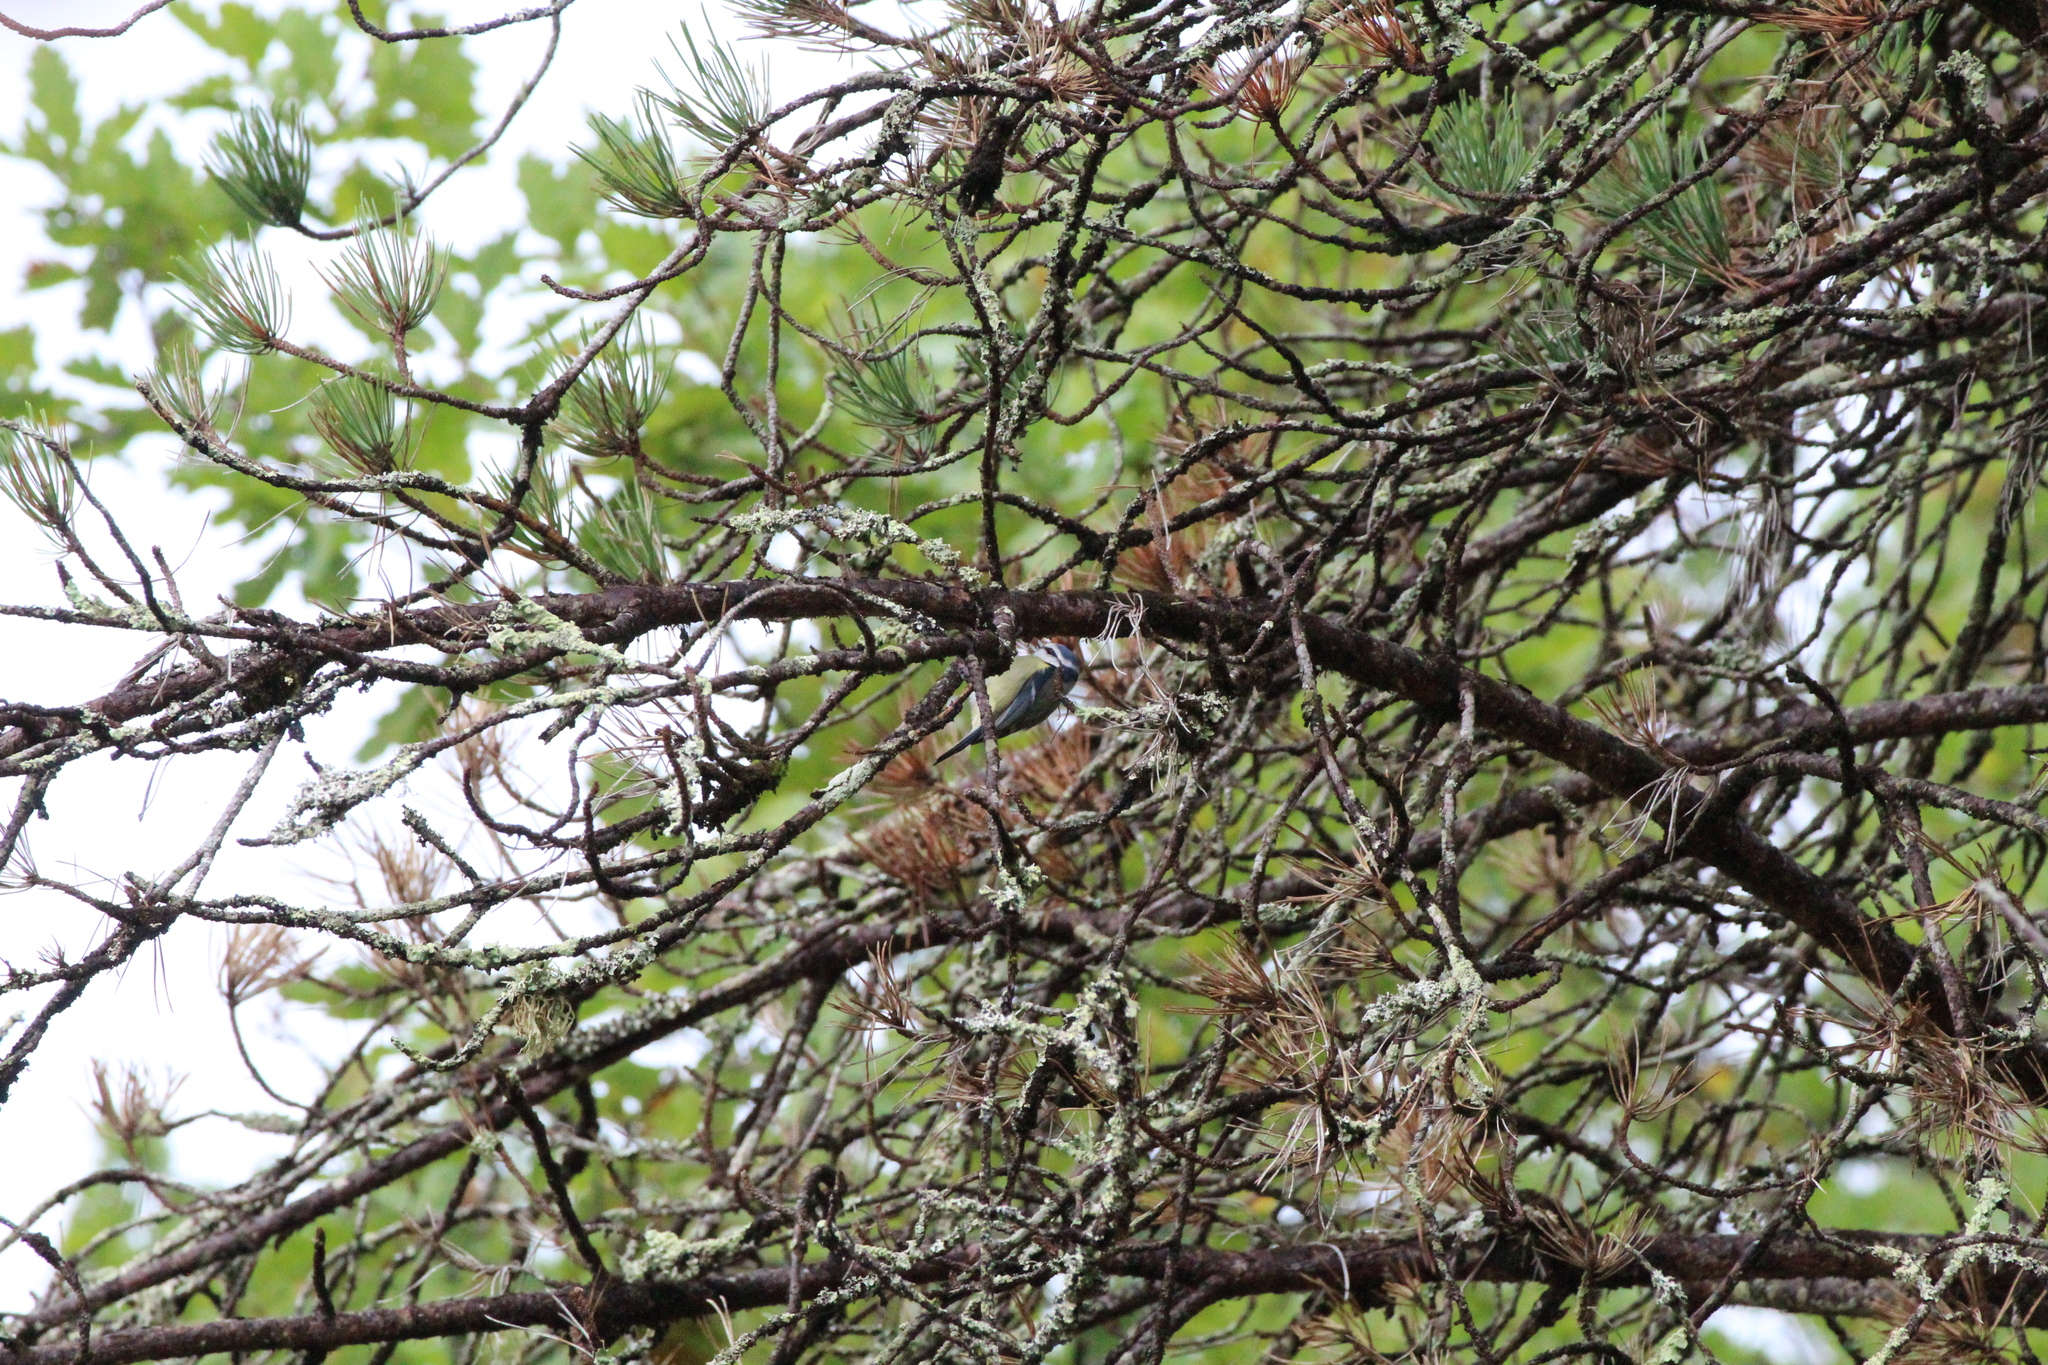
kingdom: Animalia
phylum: Chordata
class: Aves
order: Passeriformes
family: Paridae
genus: Cyanistes
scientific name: Cyanistes caeruleus
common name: Eurasian blue tit
